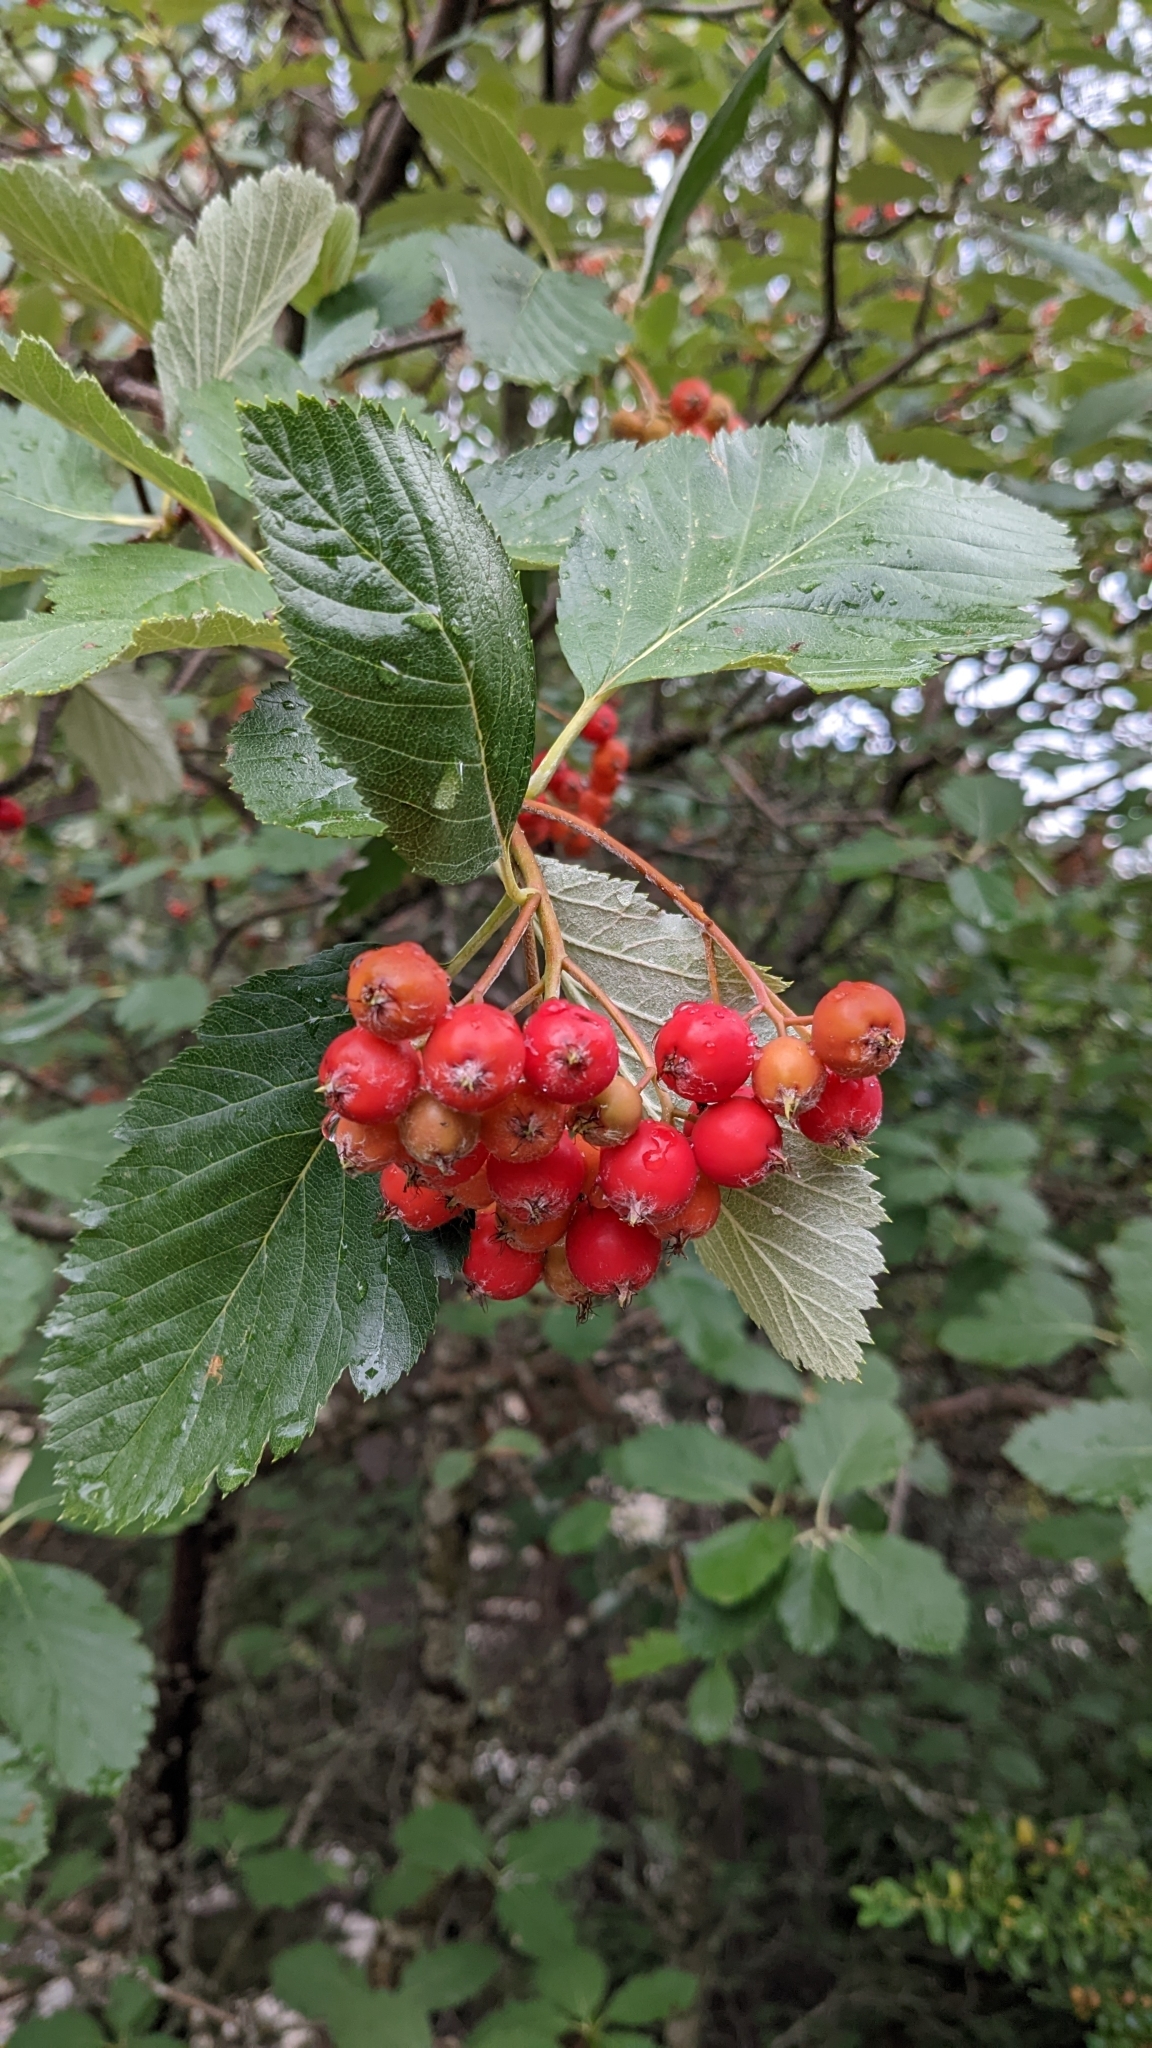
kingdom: Plantae
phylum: Tracheophyta
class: Magnoliopsida
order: Rosales
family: Rosaceae
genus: Aria
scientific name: Aria edulis
